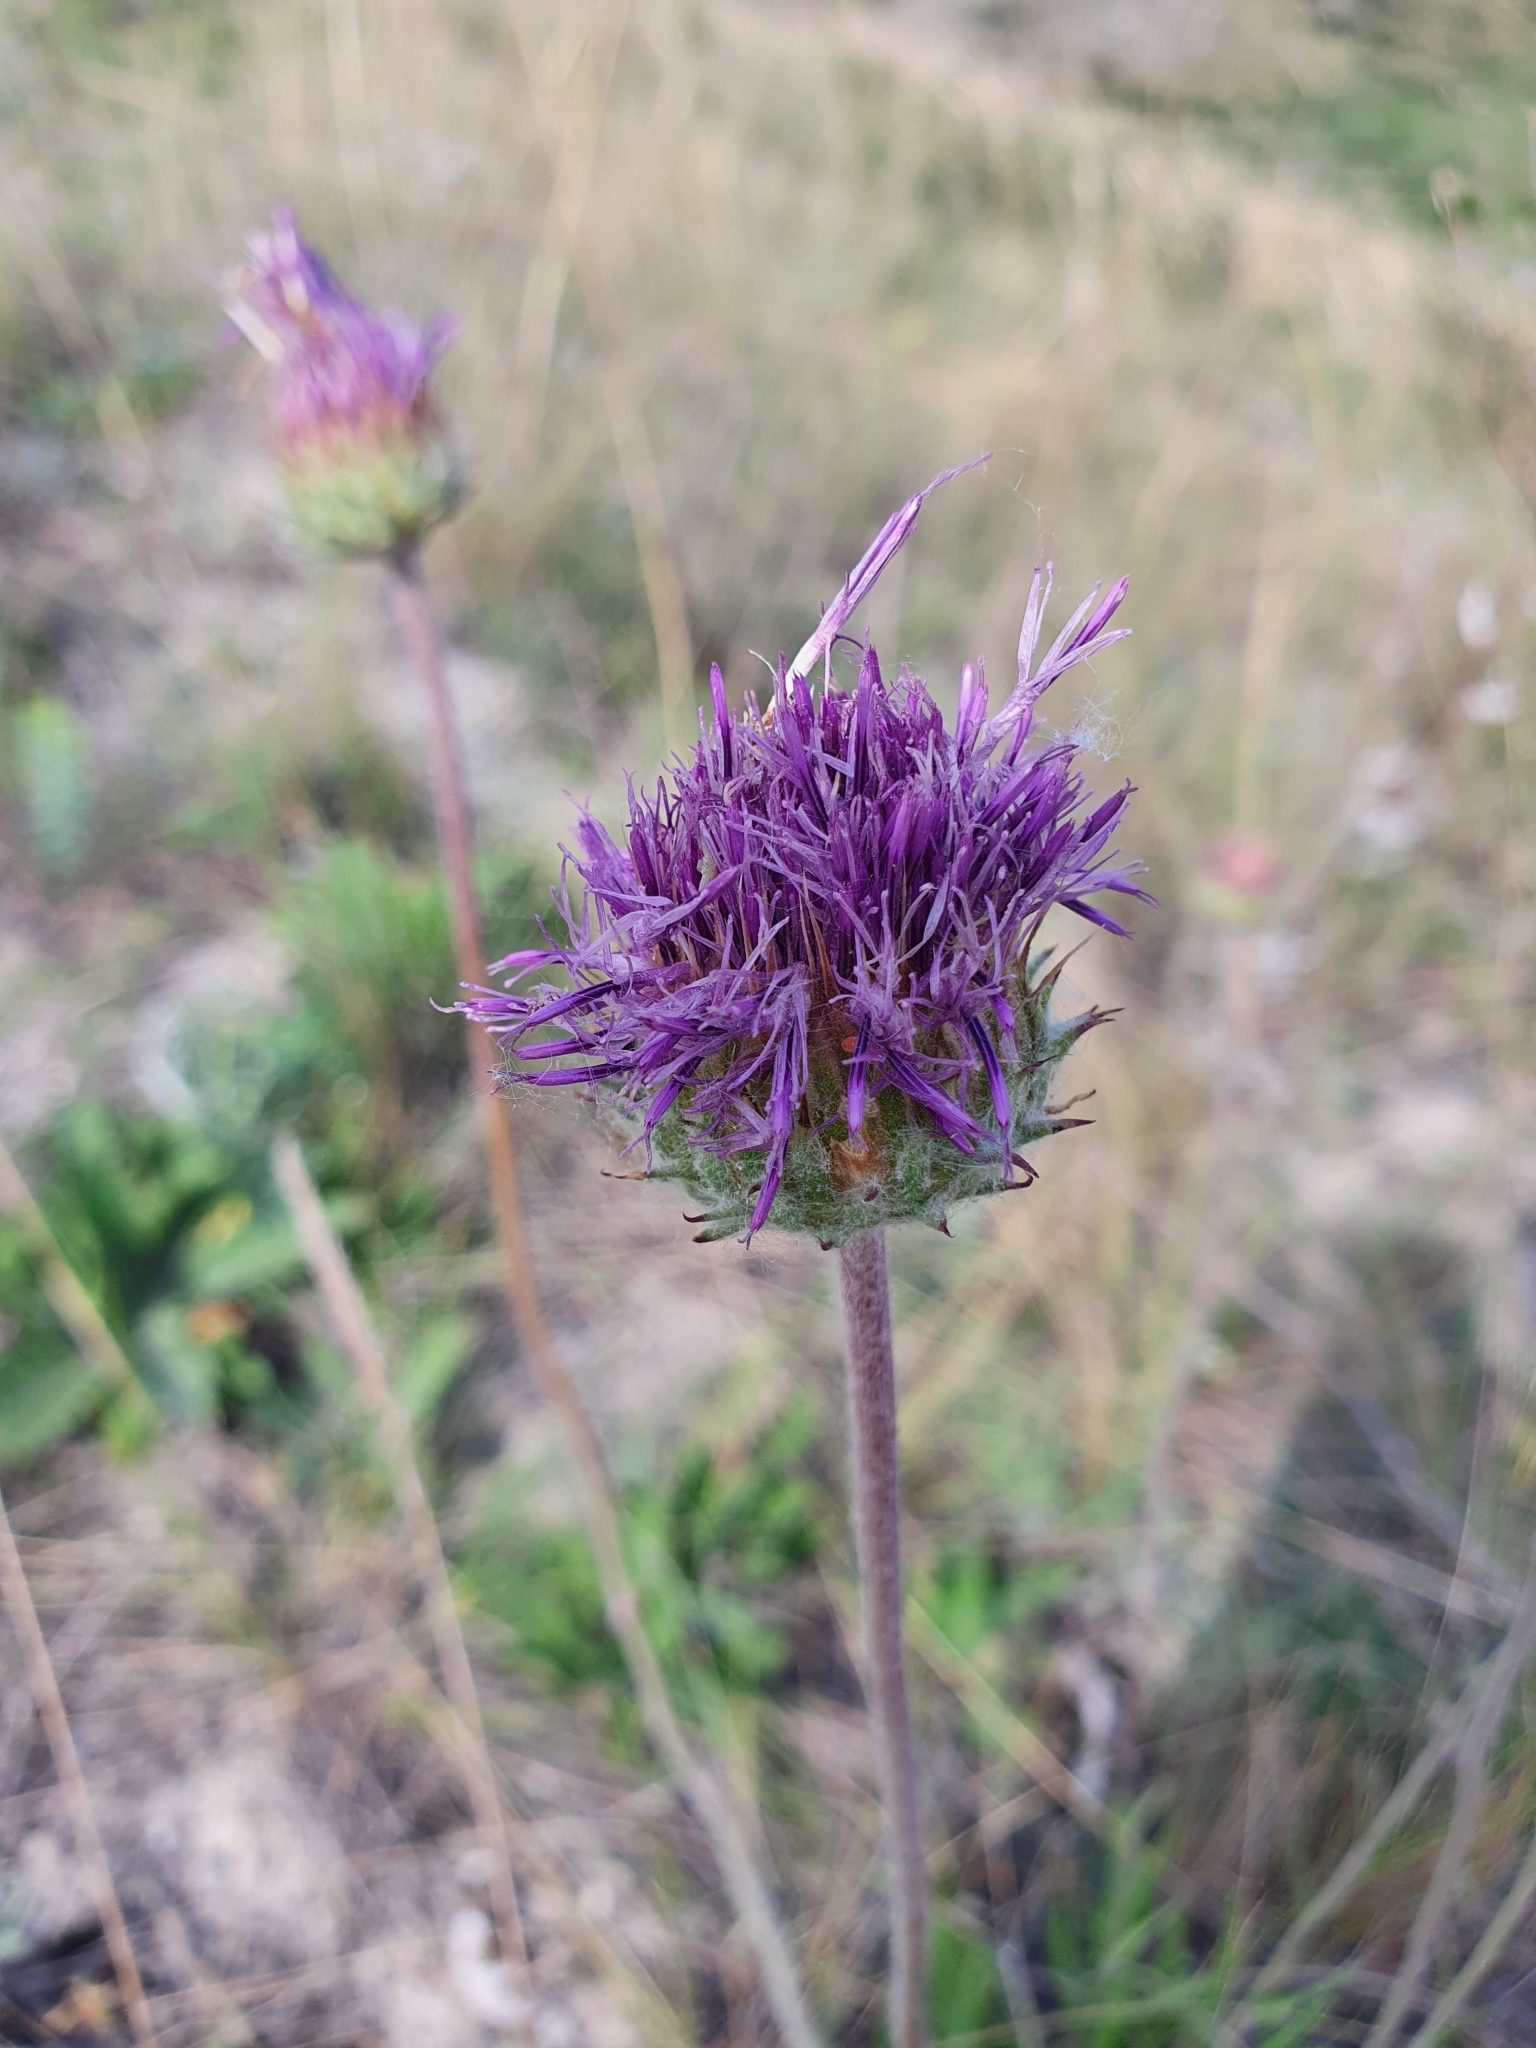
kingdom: Plantae
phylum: Tracheophyta
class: Magnoliopsida
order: Asterales
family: Asteraceae
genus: Jurinea
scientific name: Jurinea arachnoidea
